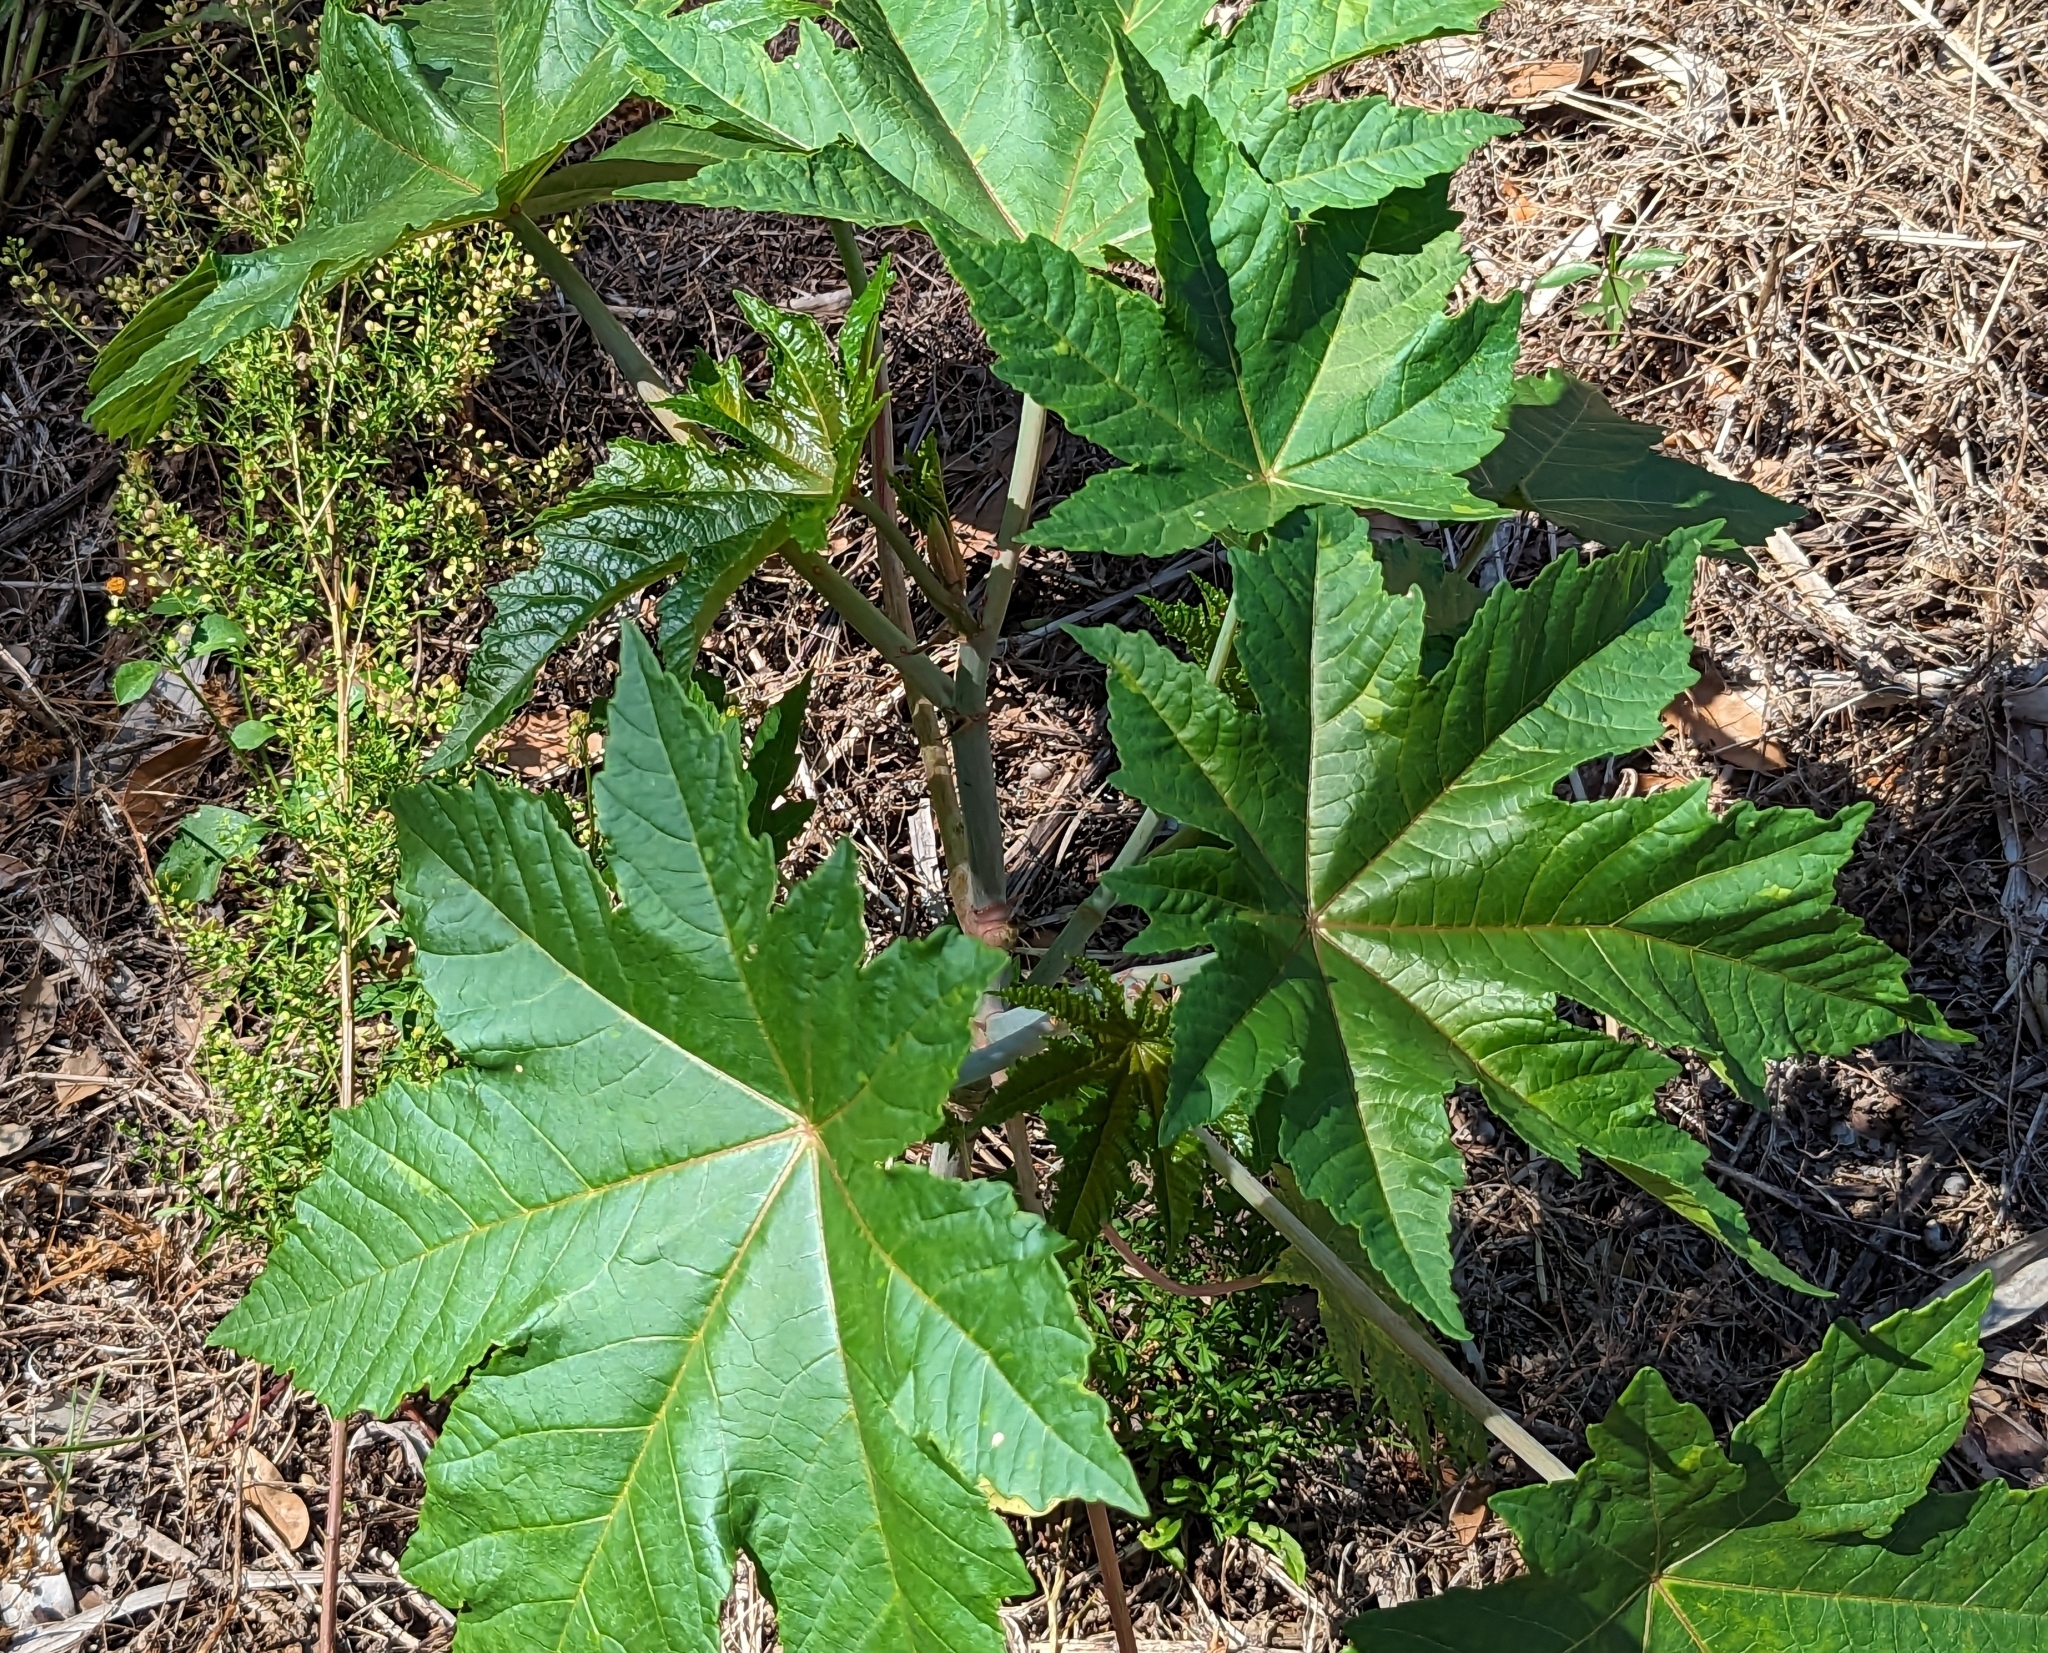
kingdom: Plantae
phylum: Tracheophyta
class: Magnoliopsida
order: Malpighiales
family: Euphorbiaceae
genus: Ricinus
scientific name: Ricinus communis
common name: Castor-oil-plant
